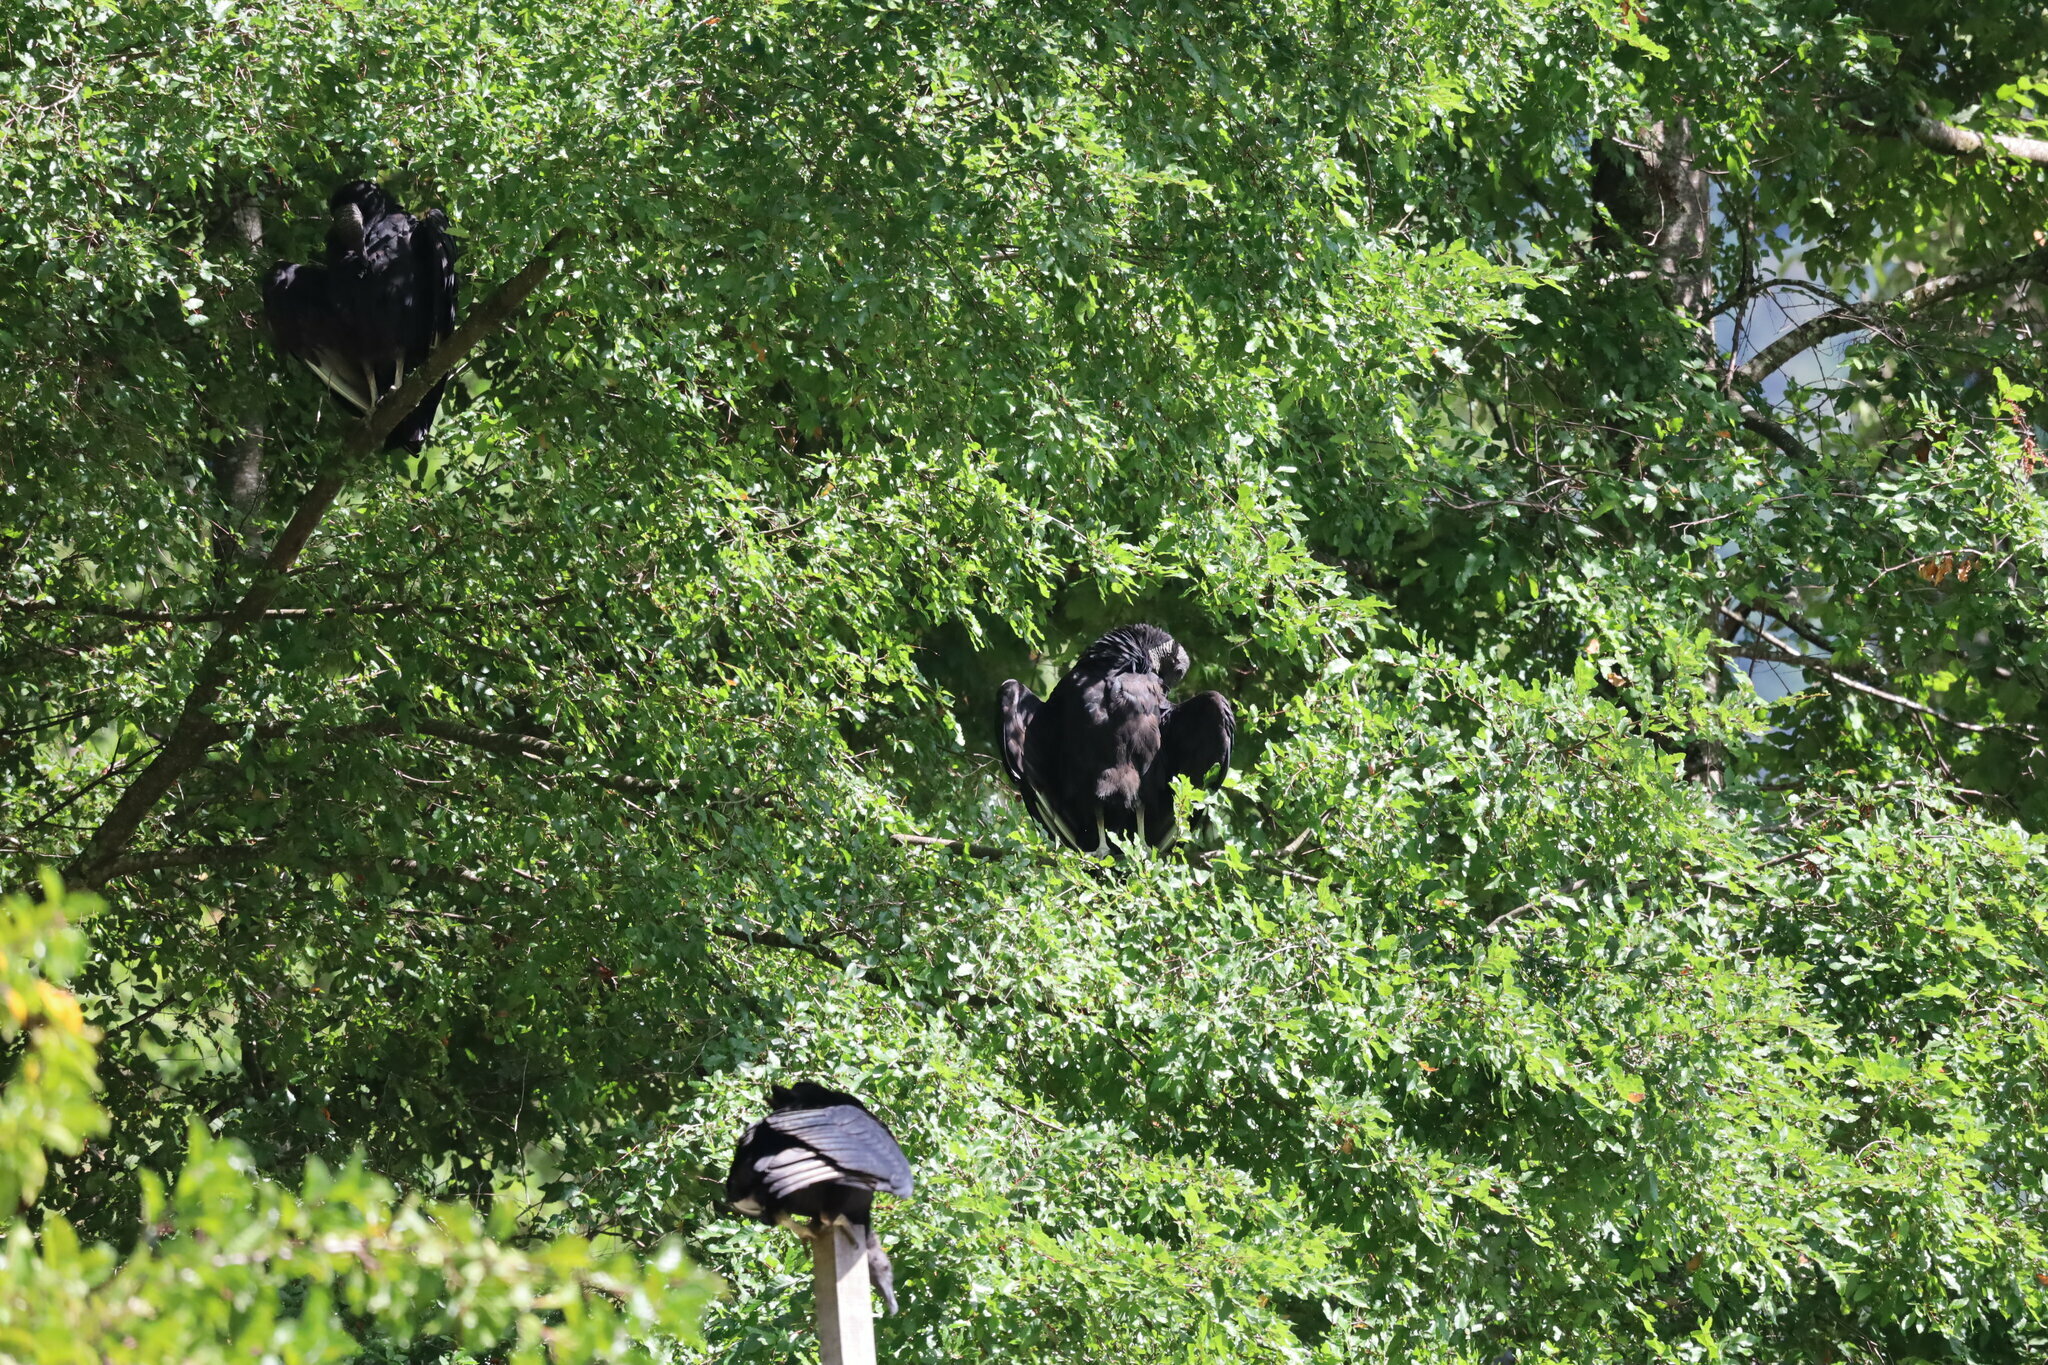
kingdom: Animalia
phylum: Chordata
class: Aves
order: Accipitriformes
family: Cathartidae
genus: Coragyps
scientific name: Coragyps atratus
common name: Black vulture
